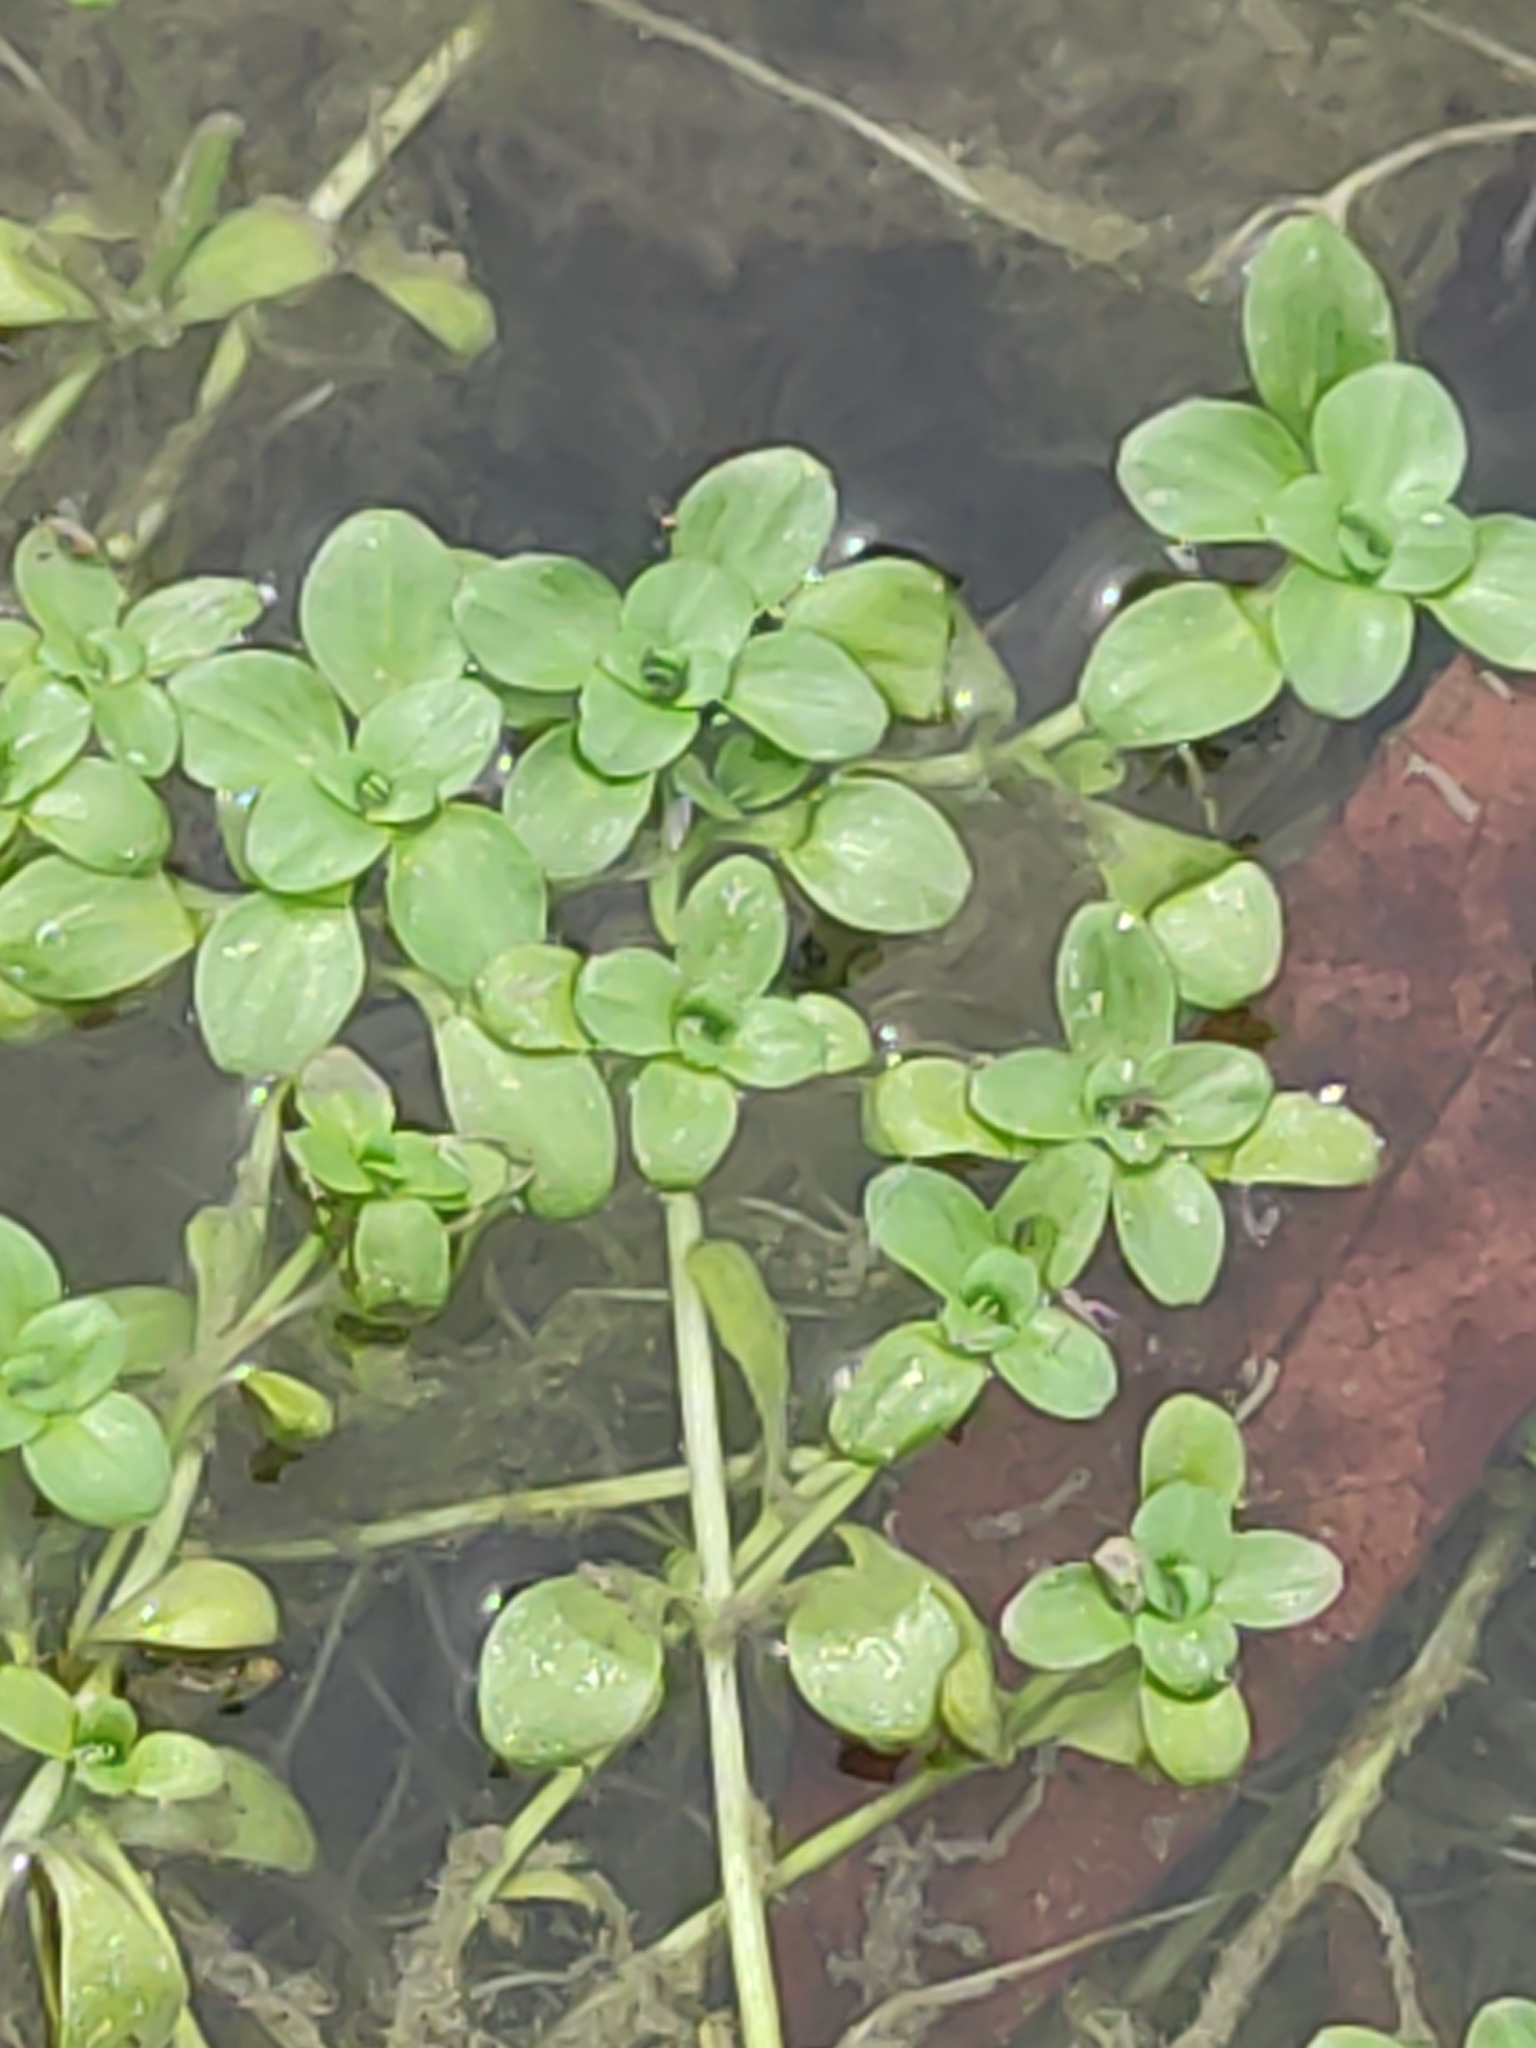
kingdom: Plantae
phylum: Tracheophyta
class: Magnoliopsida
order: Lamiales
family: Plantaginaceae
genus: Callitriche
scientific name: Callitriche stagnalis
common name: Common water-starwort
